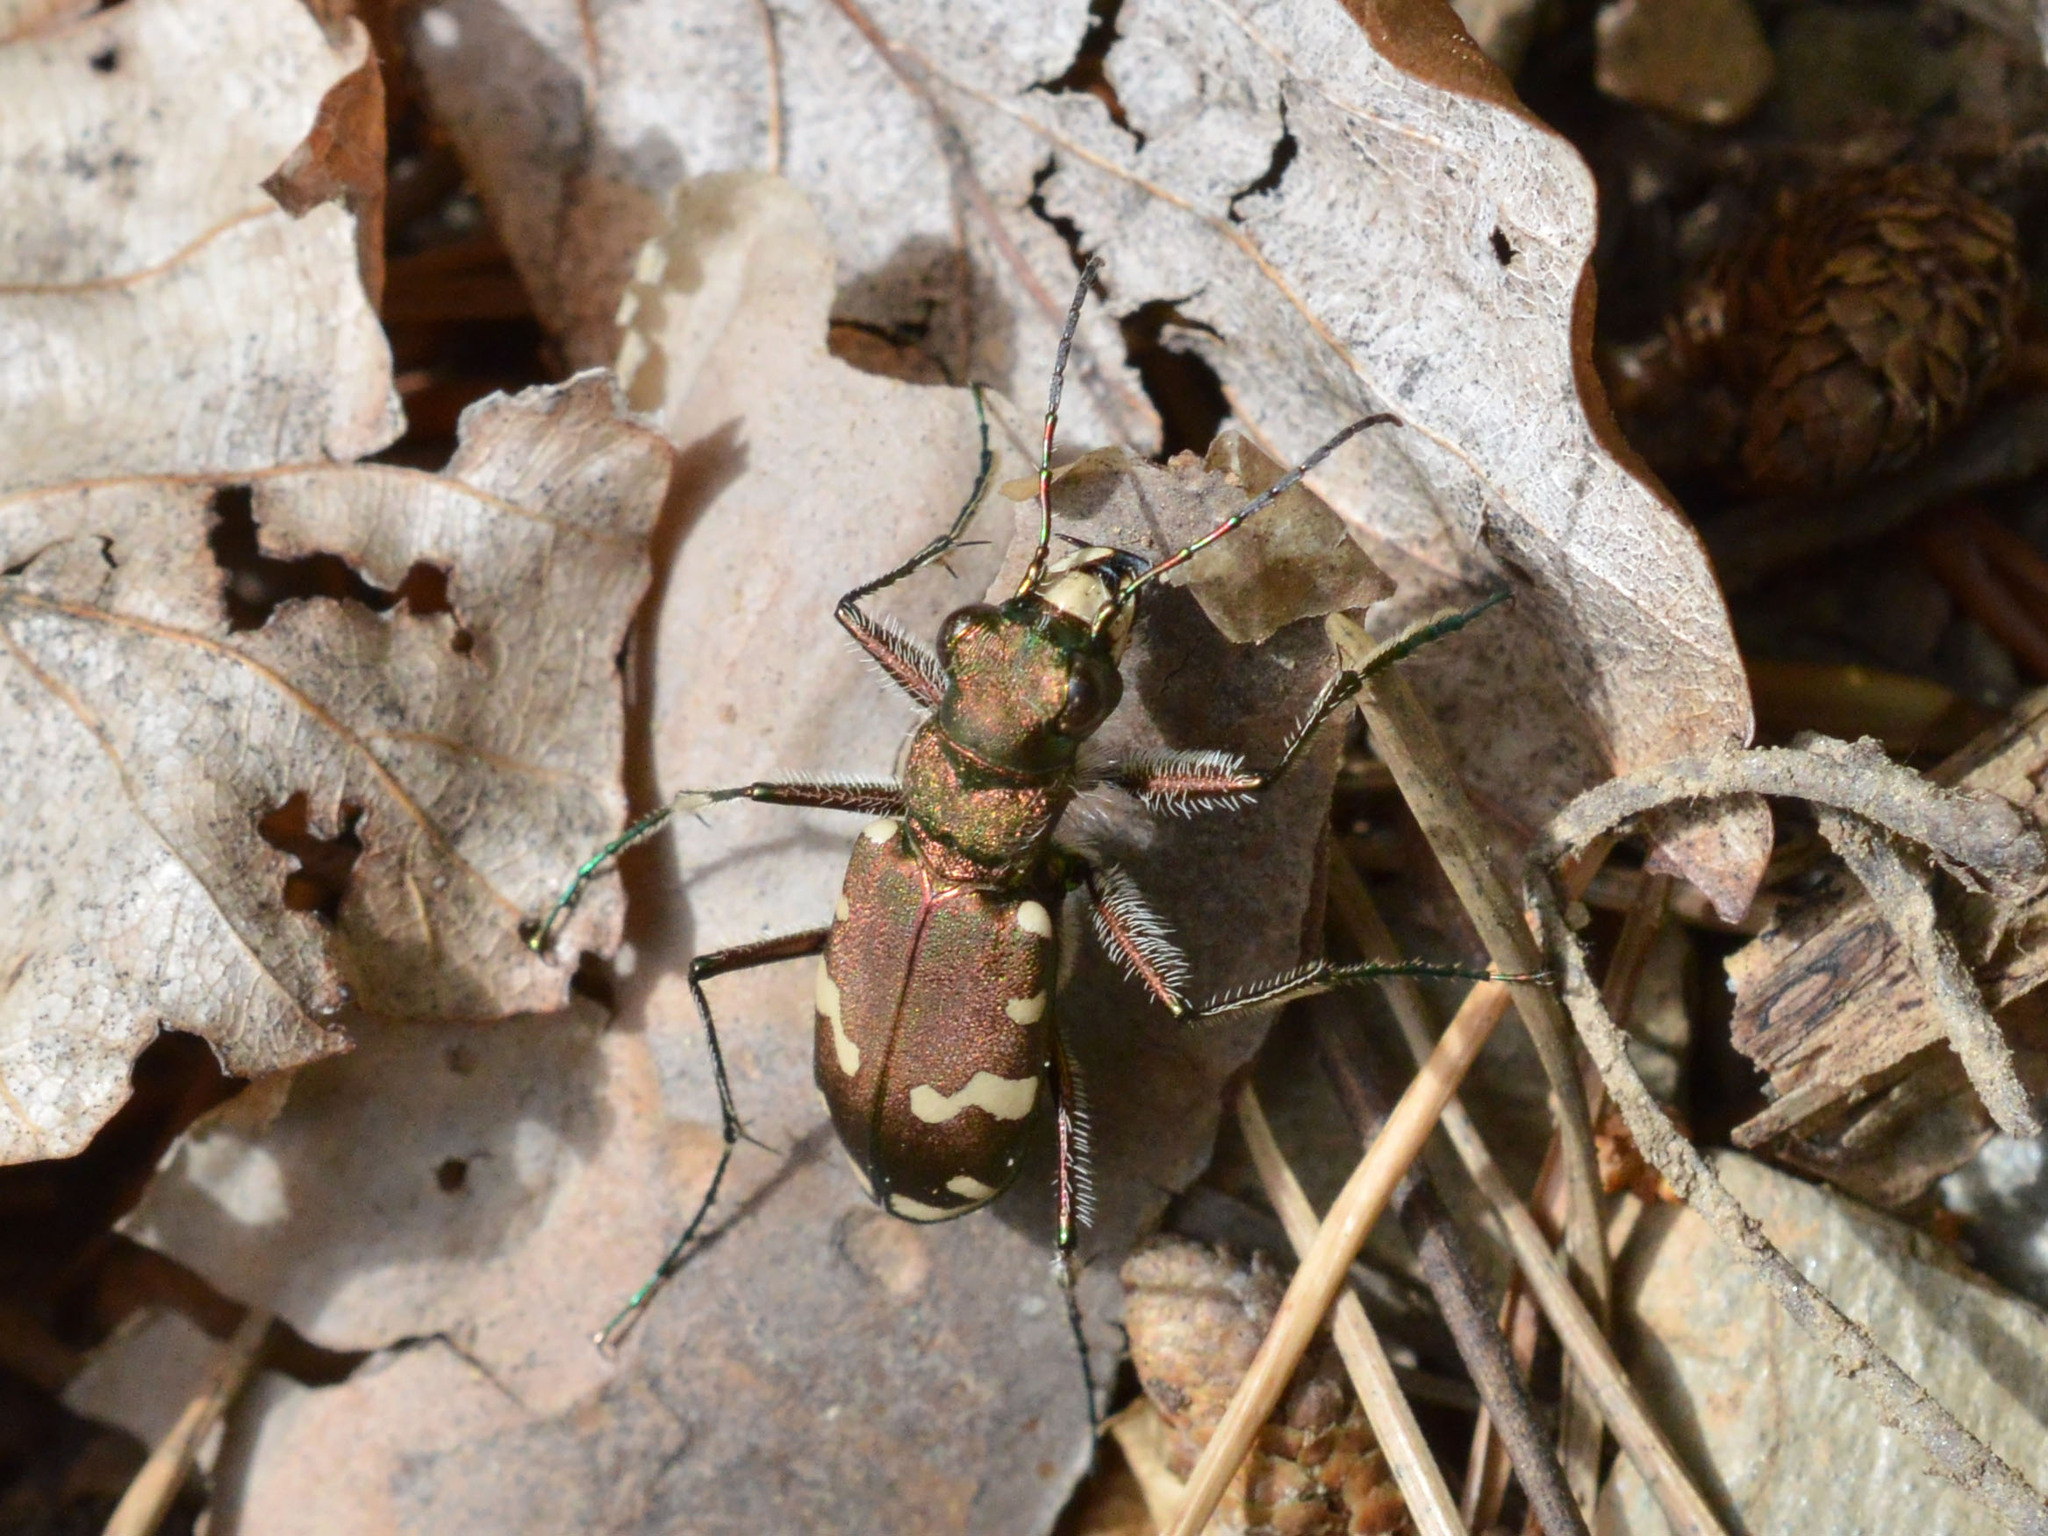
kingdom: Animalia
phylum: Arthropoda
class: Insecta
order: Coleoptera
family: Carabidae
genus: Cicindela
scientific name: Cicindela sylvicola
